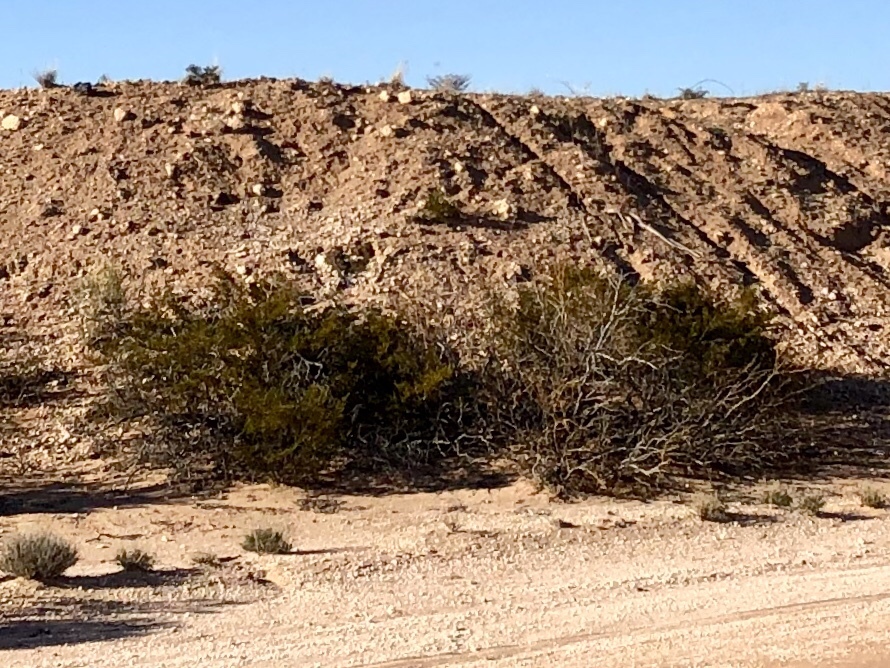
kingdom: Plantae
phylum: Tracheophyta
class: Magnoliopsida
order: Zygophyllales
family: Zygophyllaceae
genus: Larrea
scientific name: Larrea tridentata
